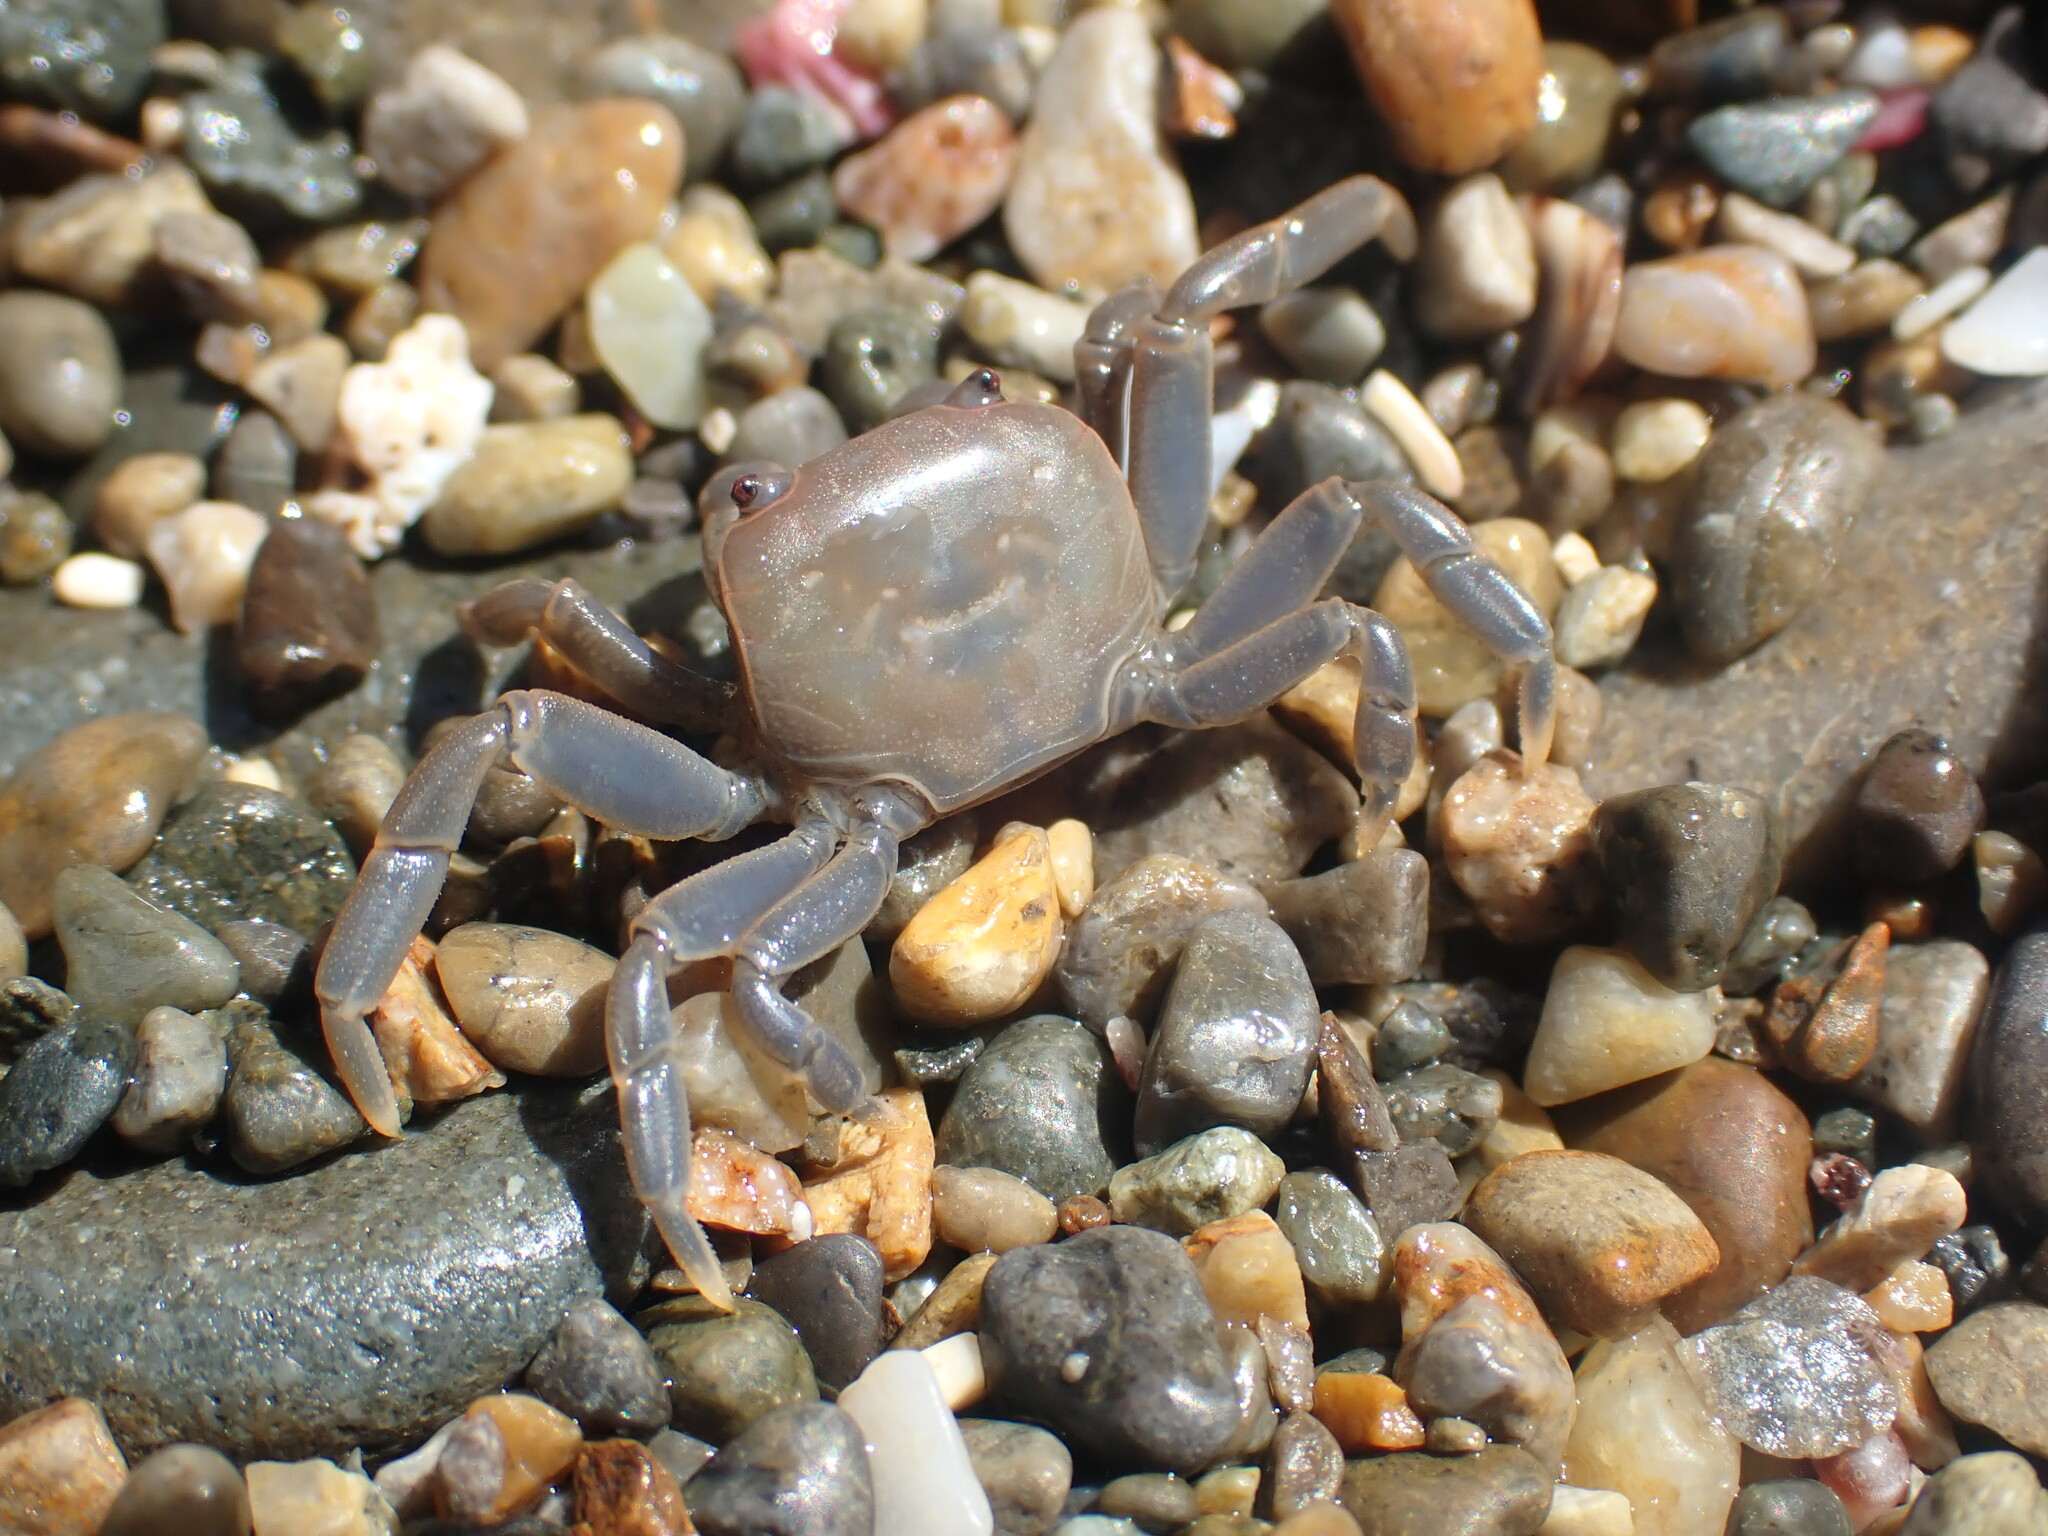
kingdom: Animalia
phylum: Arthropoda
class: Malacostraca
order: Decapoda
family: Varunidae
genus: Cyclograpsus
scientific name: Cyclograpsus insularum
